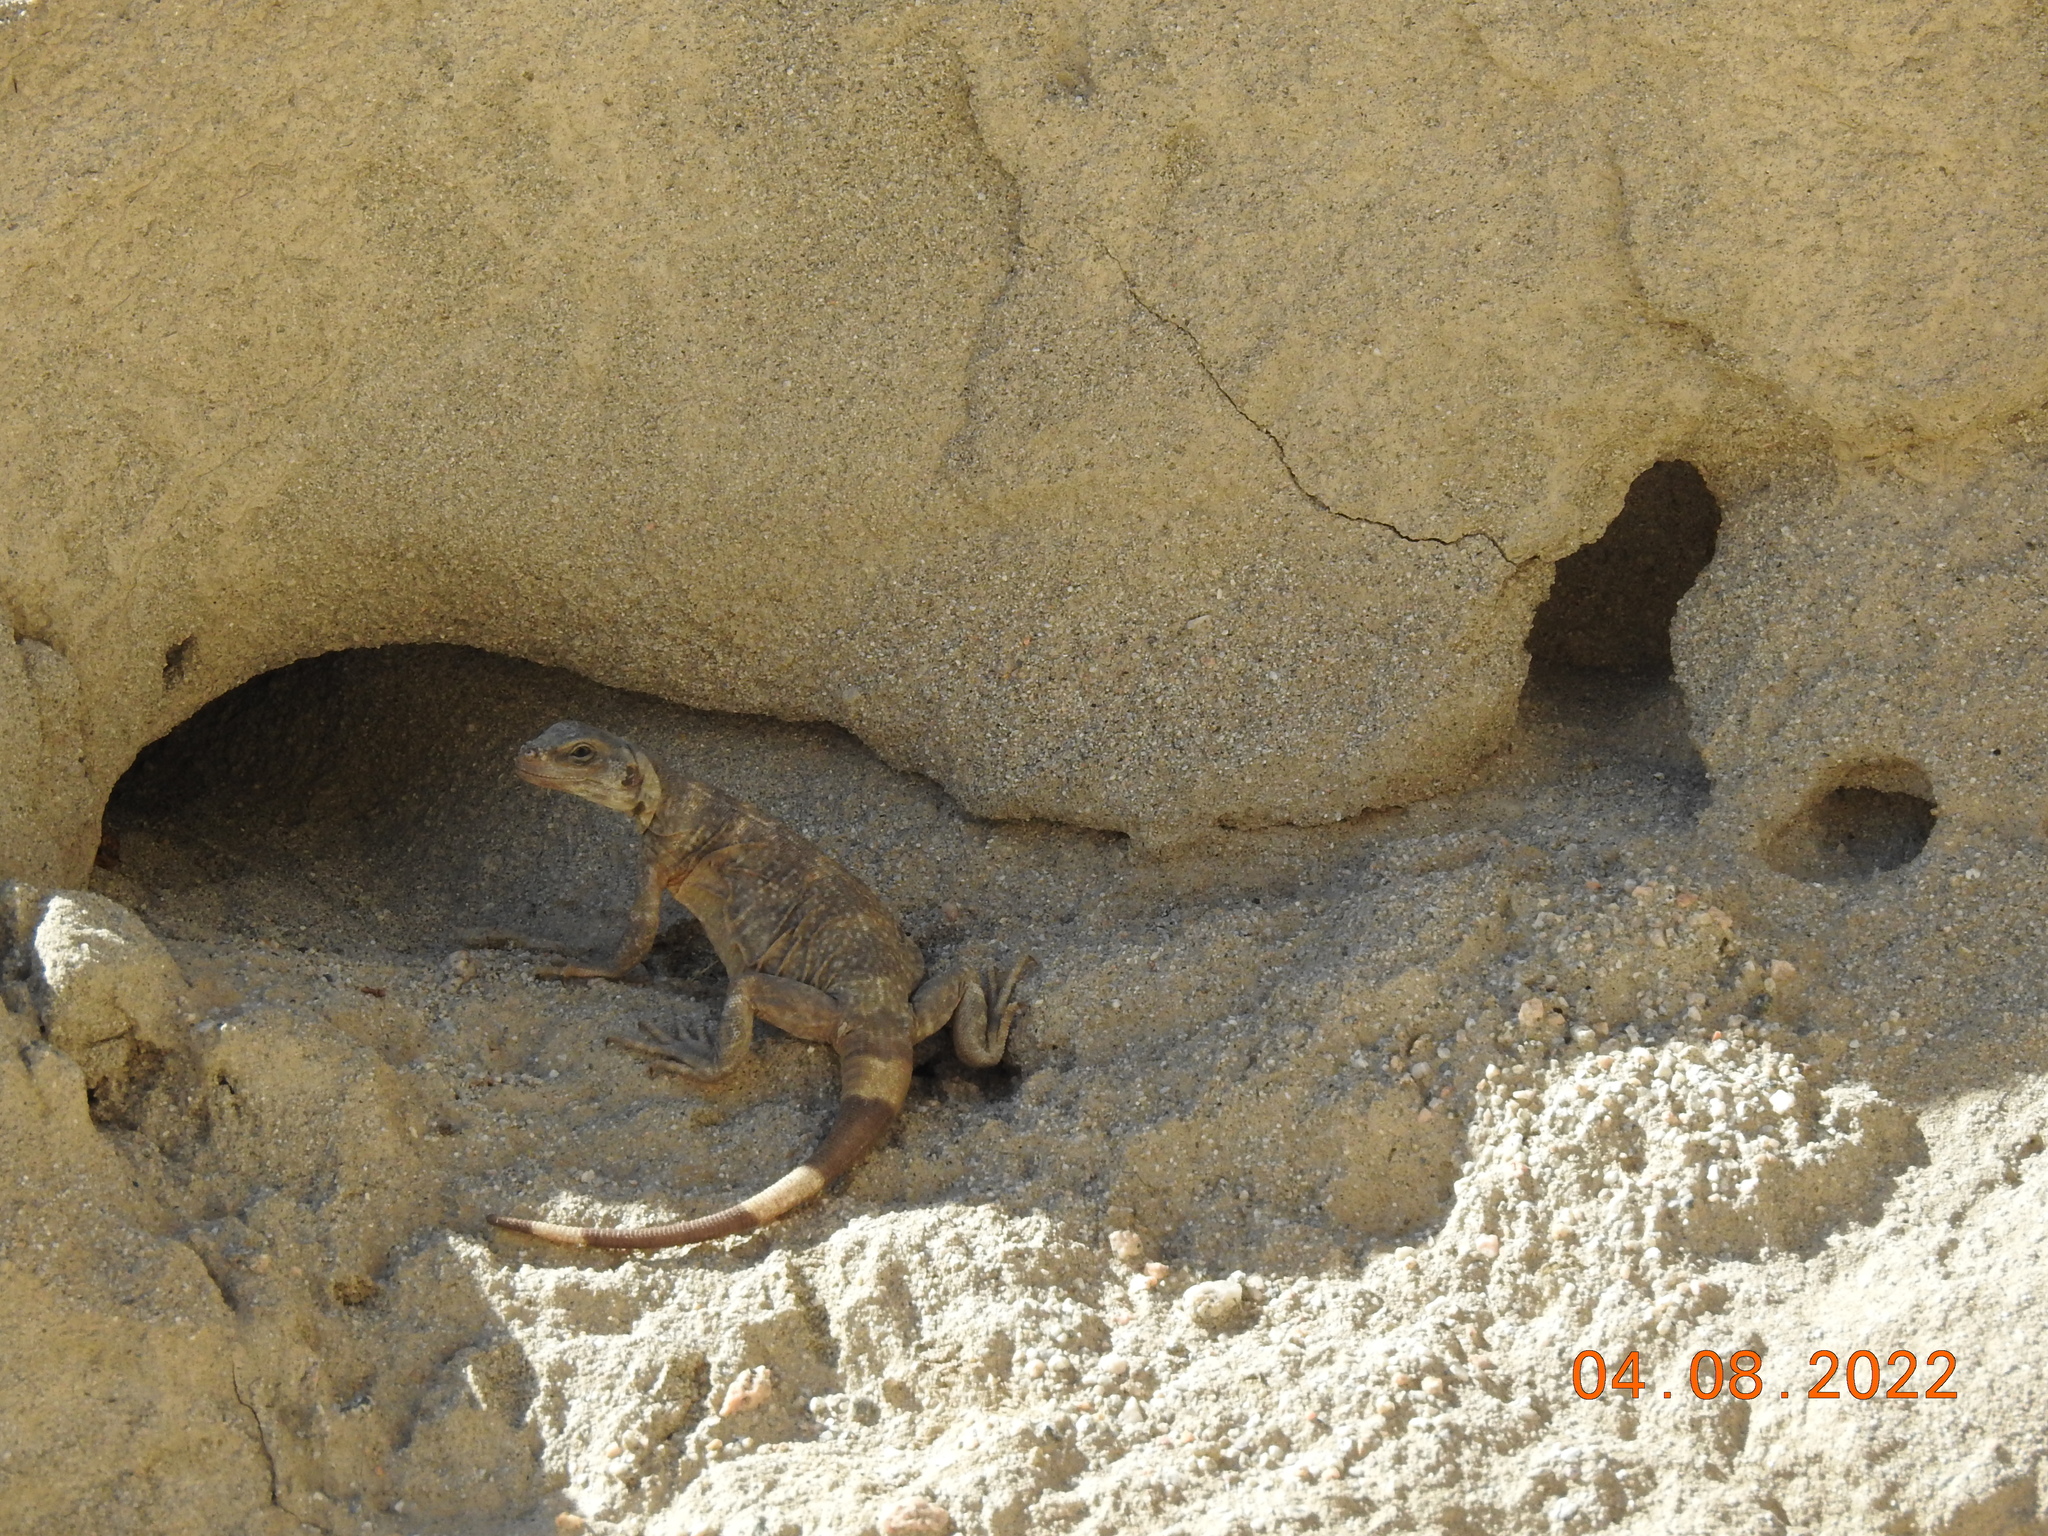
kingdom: Animalia
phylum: Chordata
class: Squamata
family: Iguanidae
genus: Sauromalus
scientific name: Sauromalus ater
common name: Northern chuckwalla
